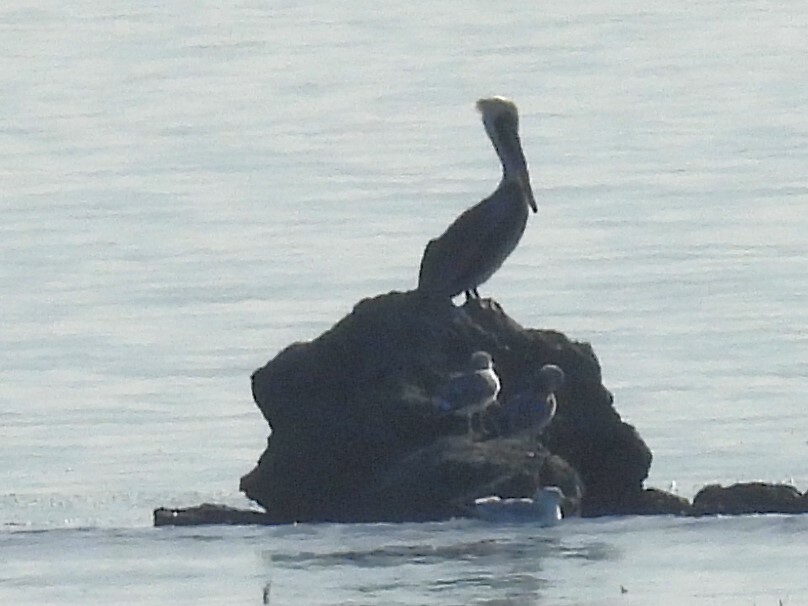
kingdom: Animalia
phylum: Chordata
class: Aves
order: Pelecaniformes
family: Pelecanidae
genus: Pelecanus
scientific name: Pelecanus occidentalis
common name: Brown pelican
